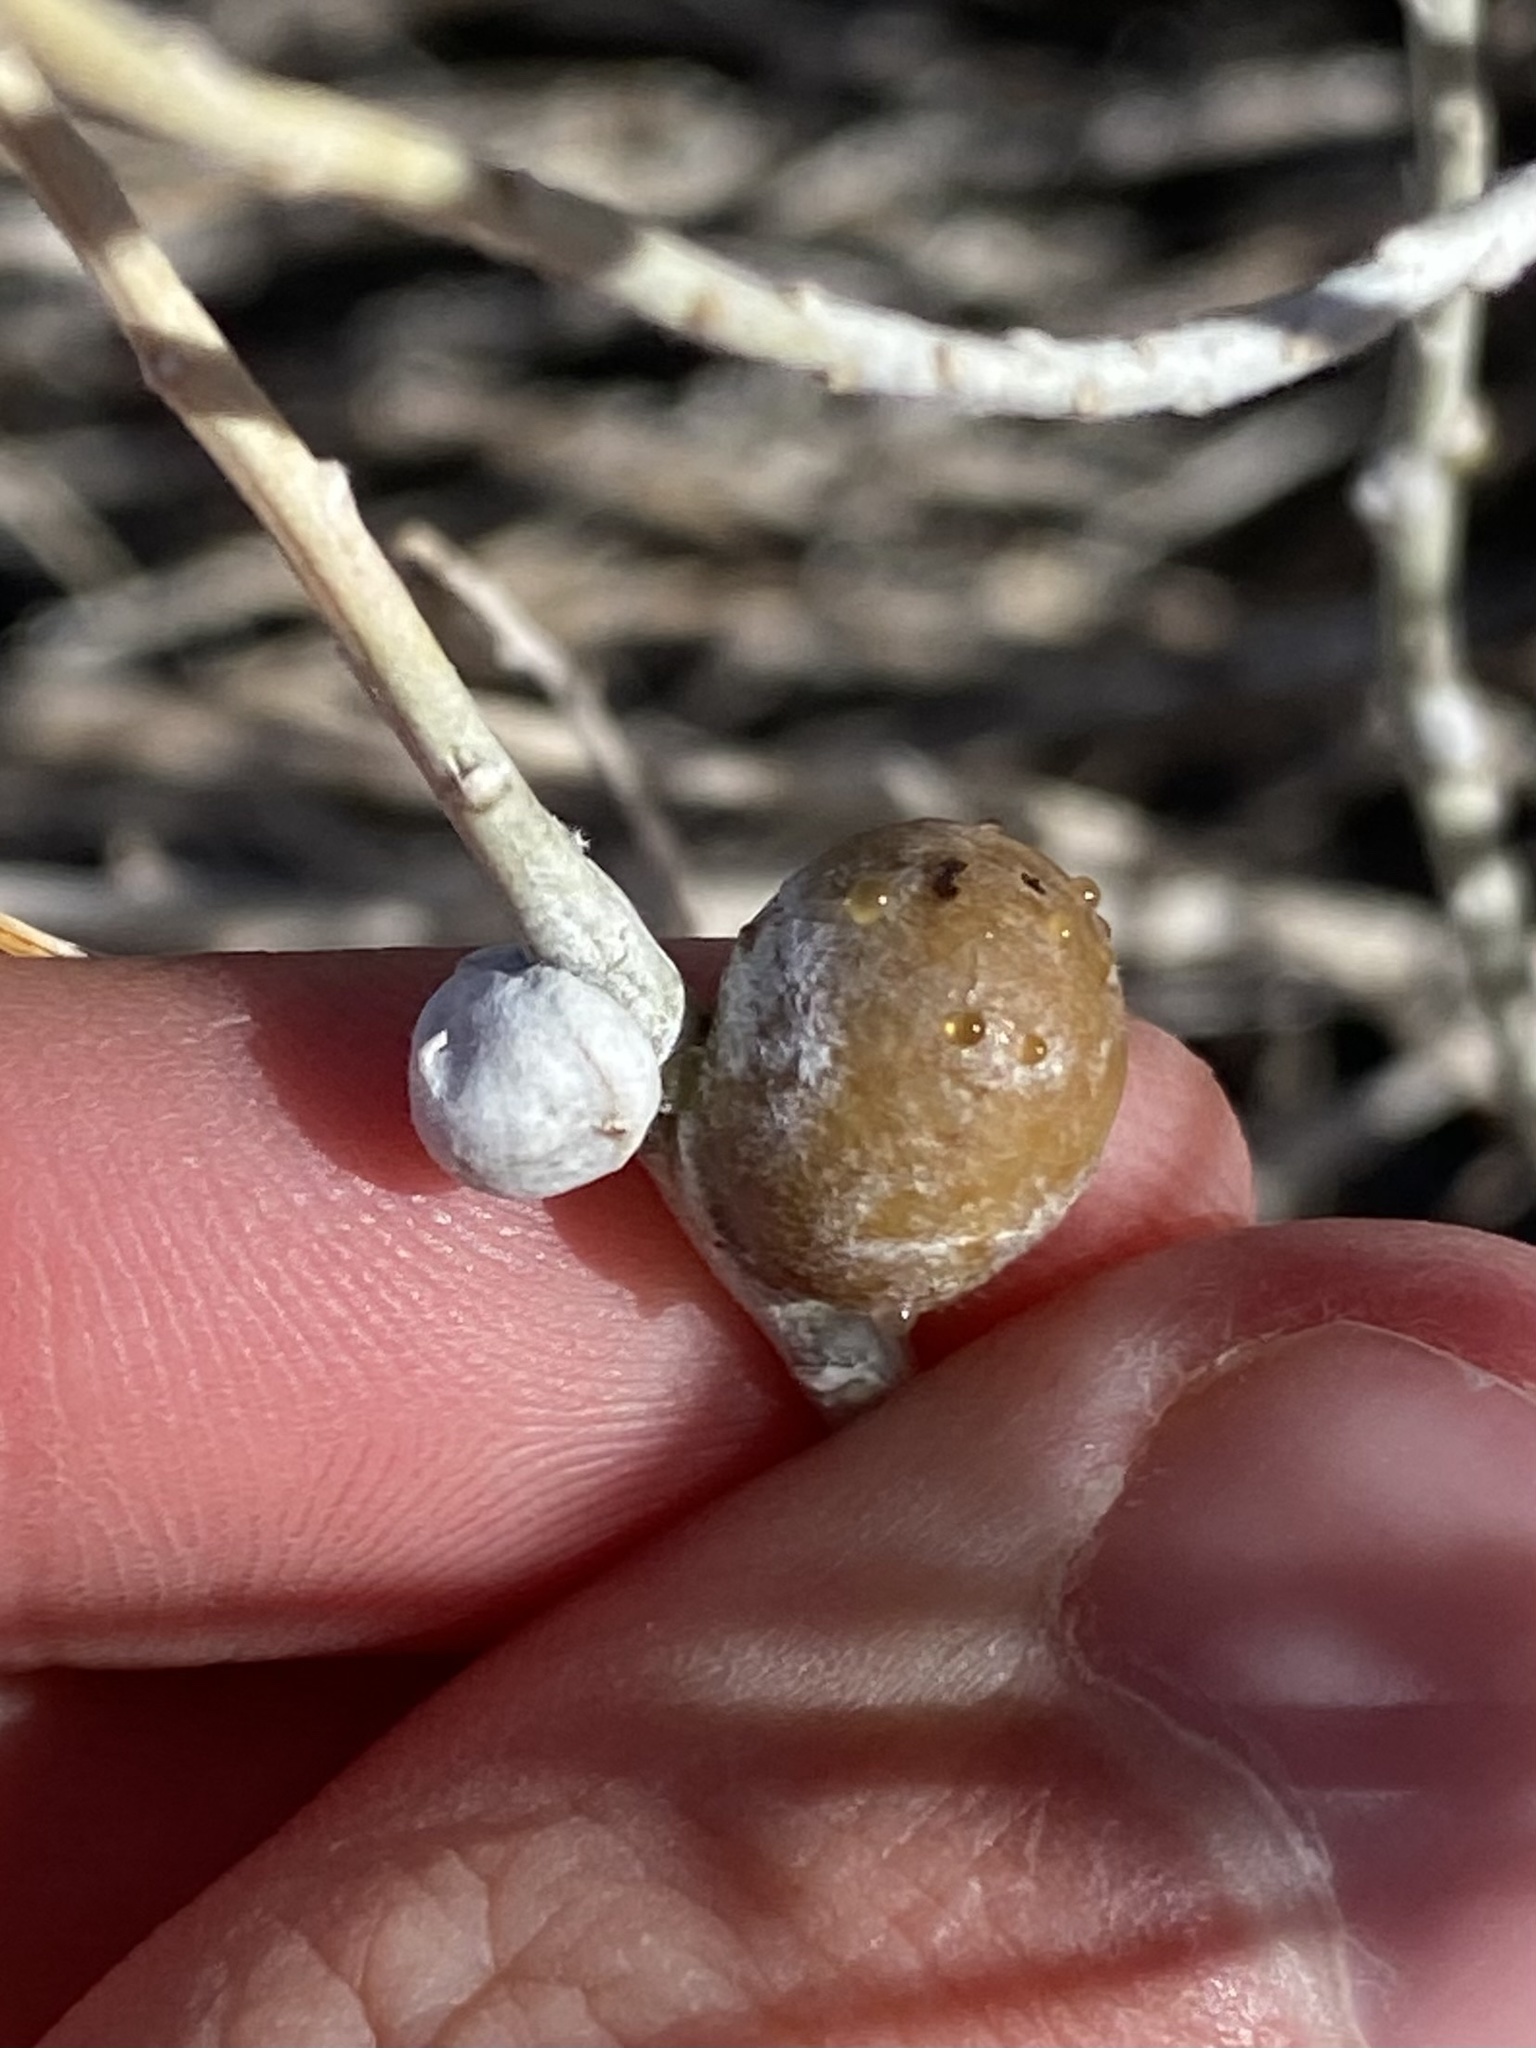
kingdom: Animalia
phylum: Arthropoda
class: Insecta
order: Diptera
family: Tephritidae
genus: Aciurina
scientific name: Aciurina trixa
